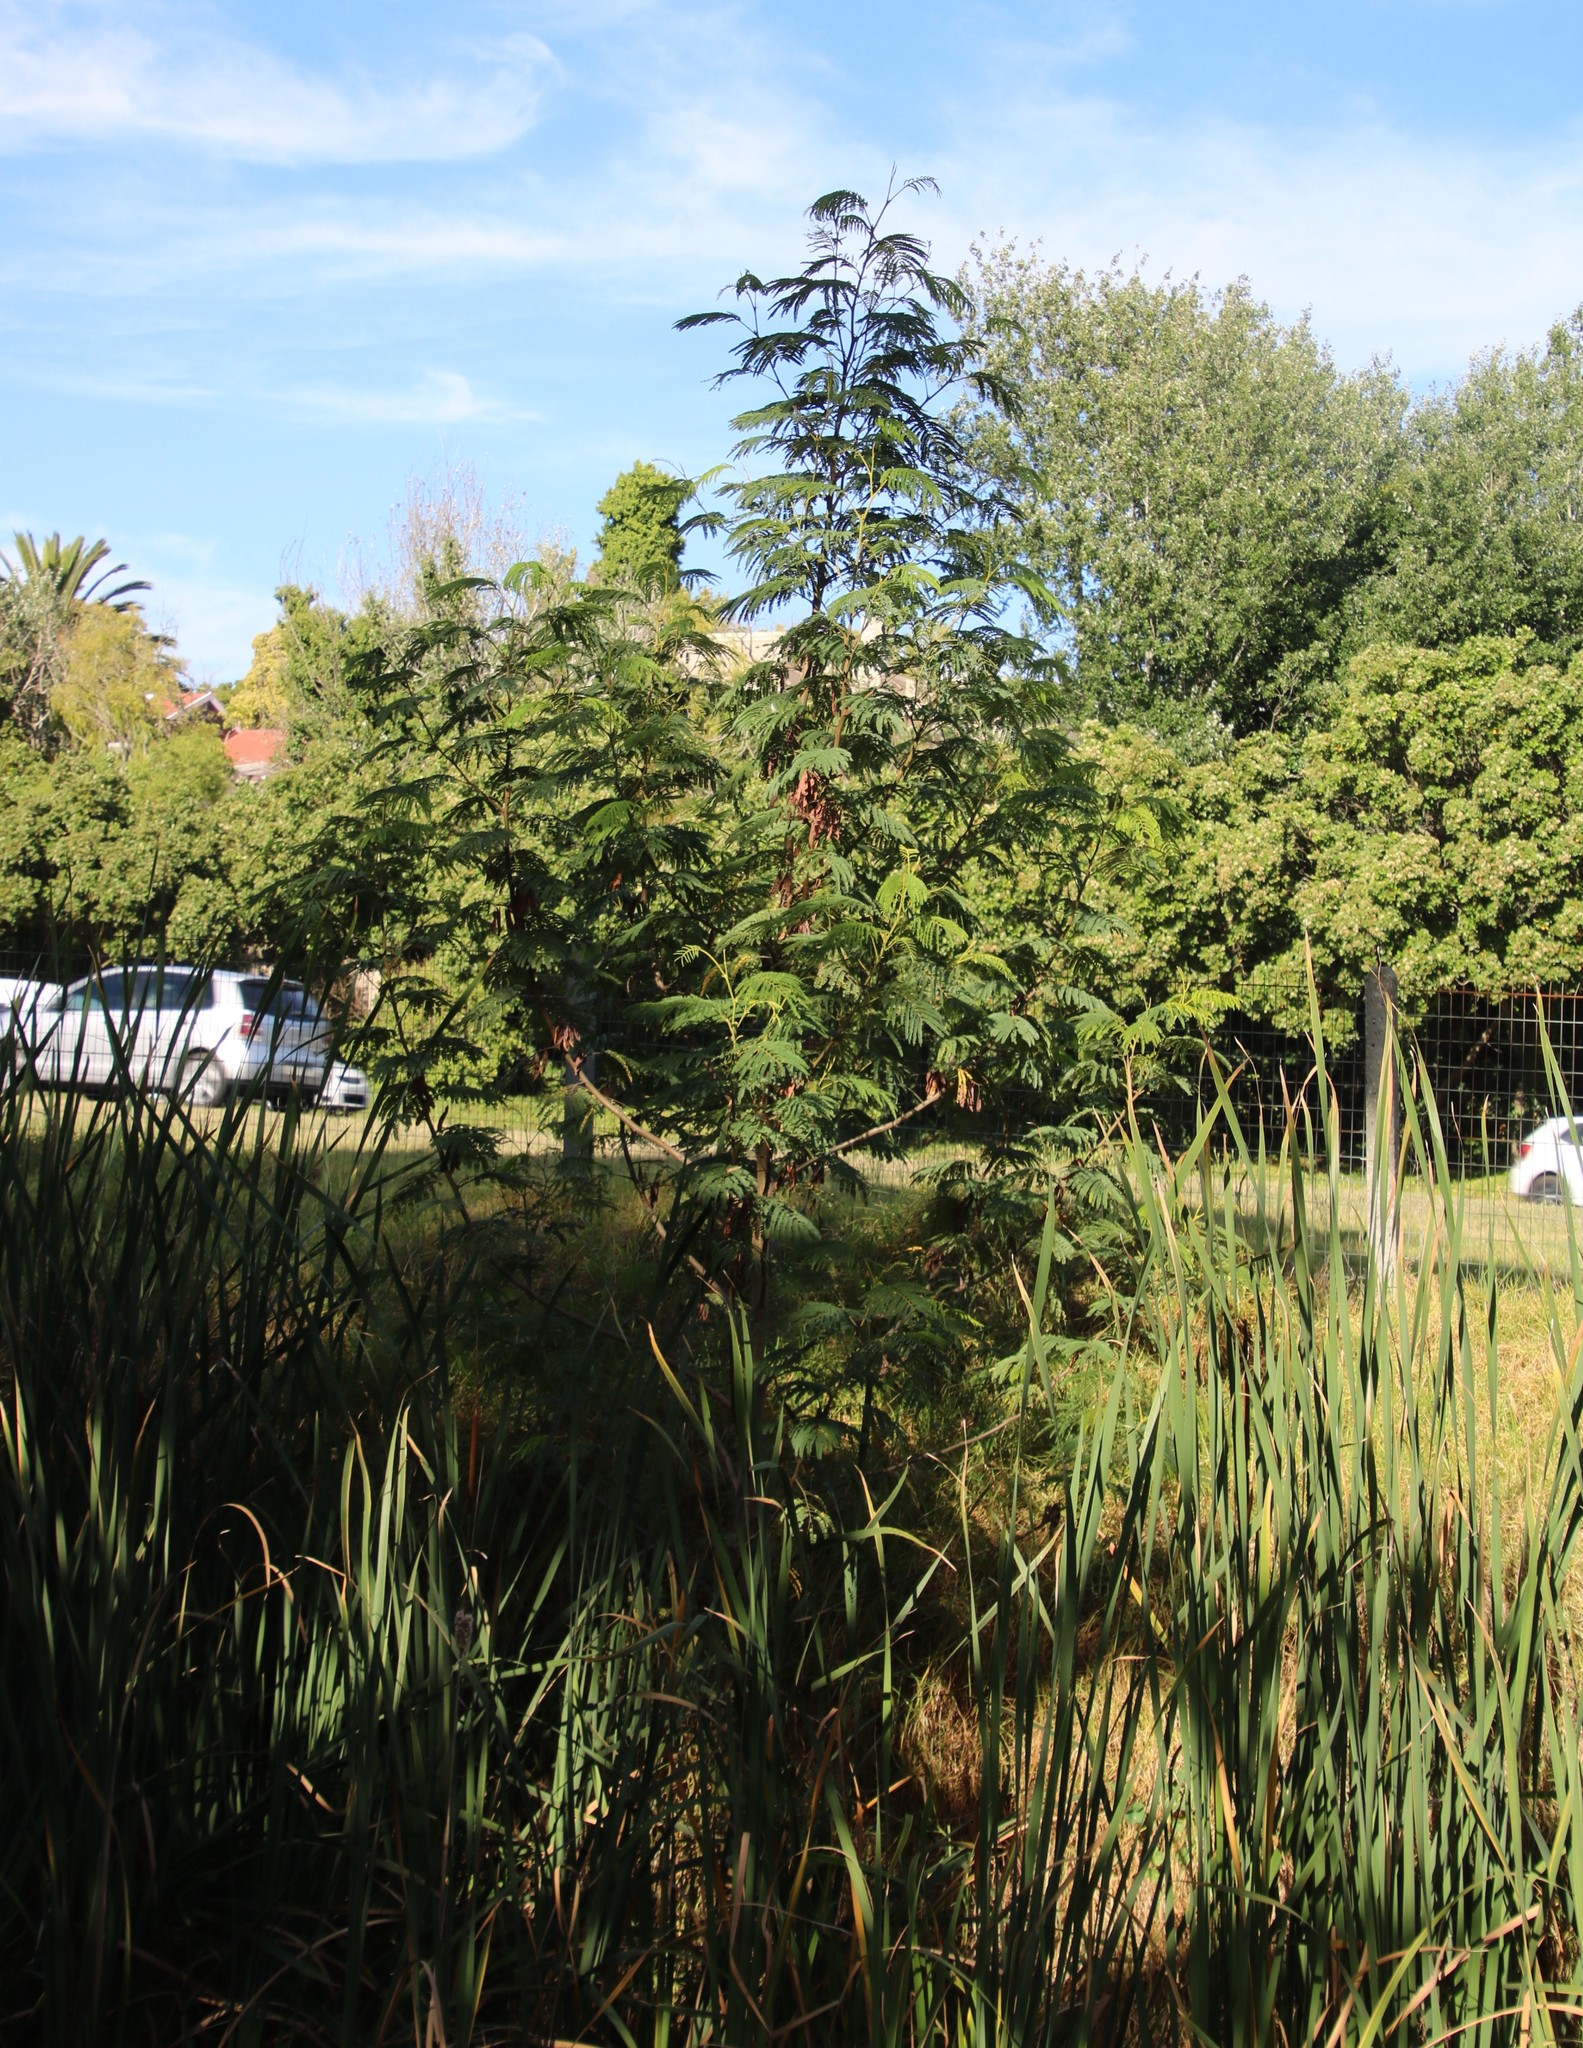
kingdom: Plantae
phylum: Tracheophyta
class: Magnoliopsida
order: Fabales
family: Fabaceae
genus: Paraserianthes
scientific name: Paraserianthes lophantha
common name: Plume albizia
